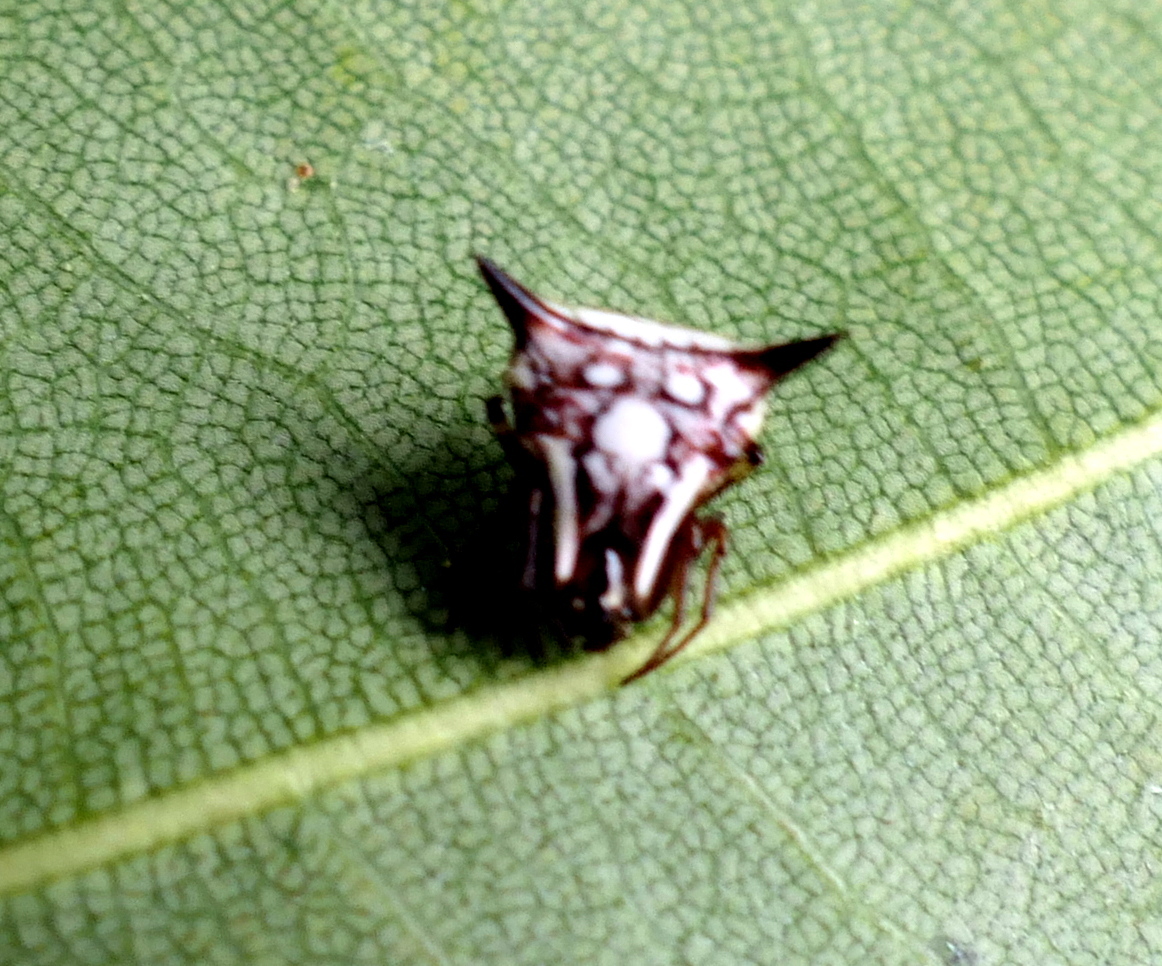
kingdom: Animalia
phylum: Arthropoda
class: Arachnida
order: Araneae
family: Araneidae
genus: Micrathena
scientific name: Micrathena evansi
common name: Orb weavers
